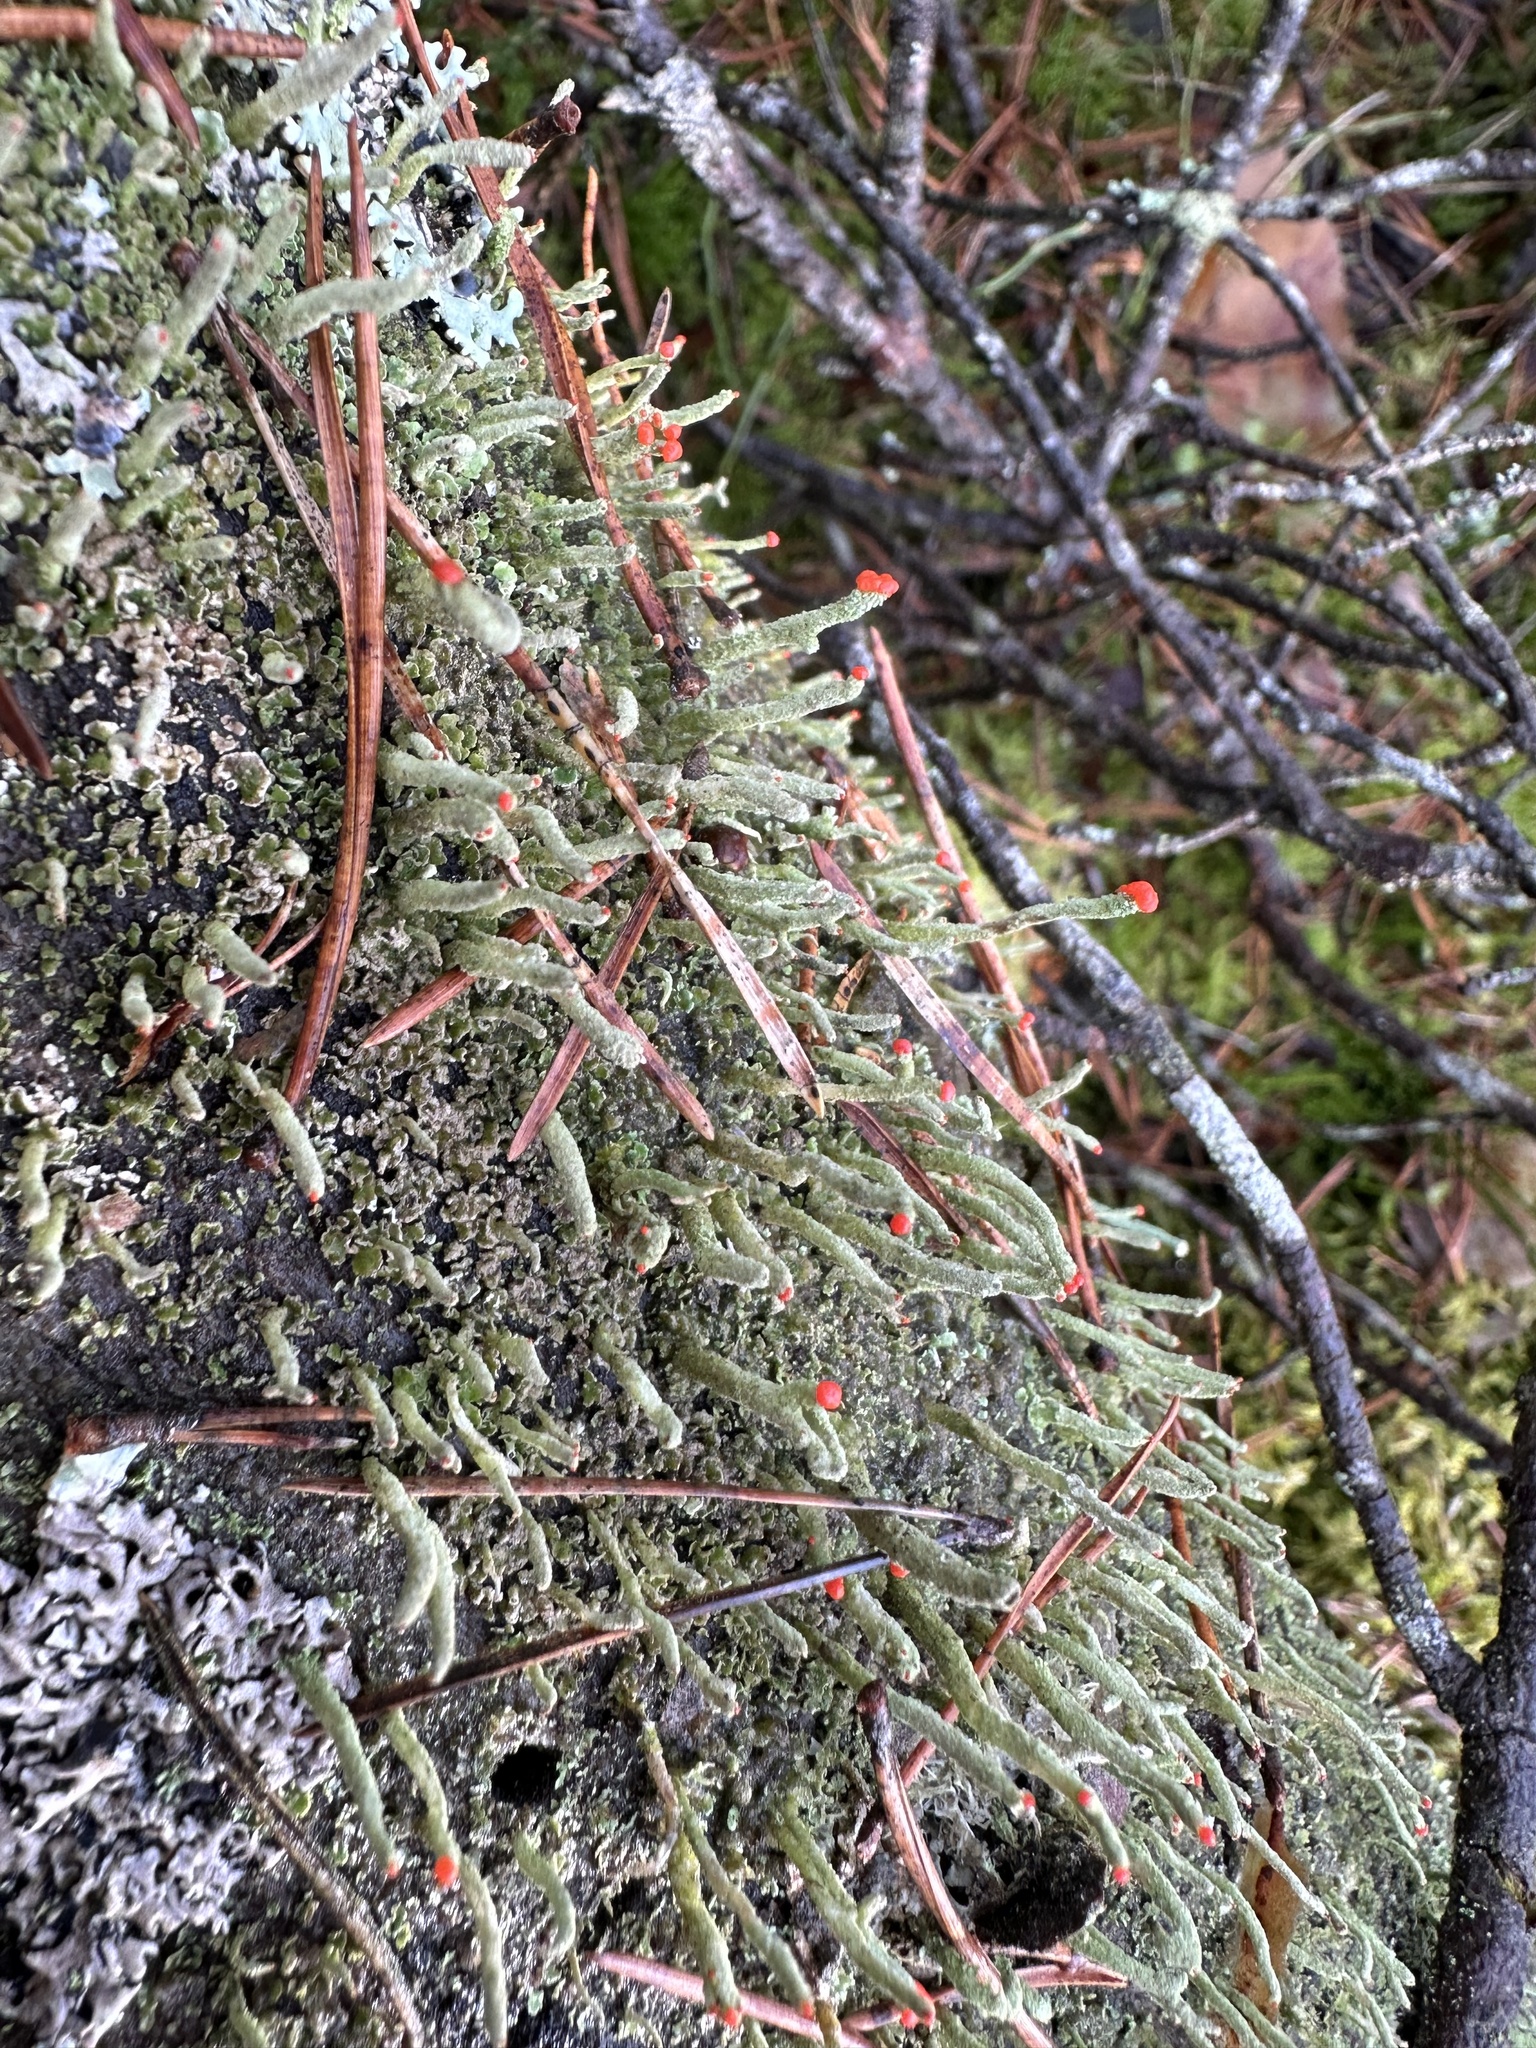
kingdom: Fungi
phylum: Ascomycota
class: Lecanoromycetes
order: Lecanorales
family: Cladoniaceae
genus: Cladonia
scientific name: Cladonia macilenta
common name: Lipstick powderhorn
